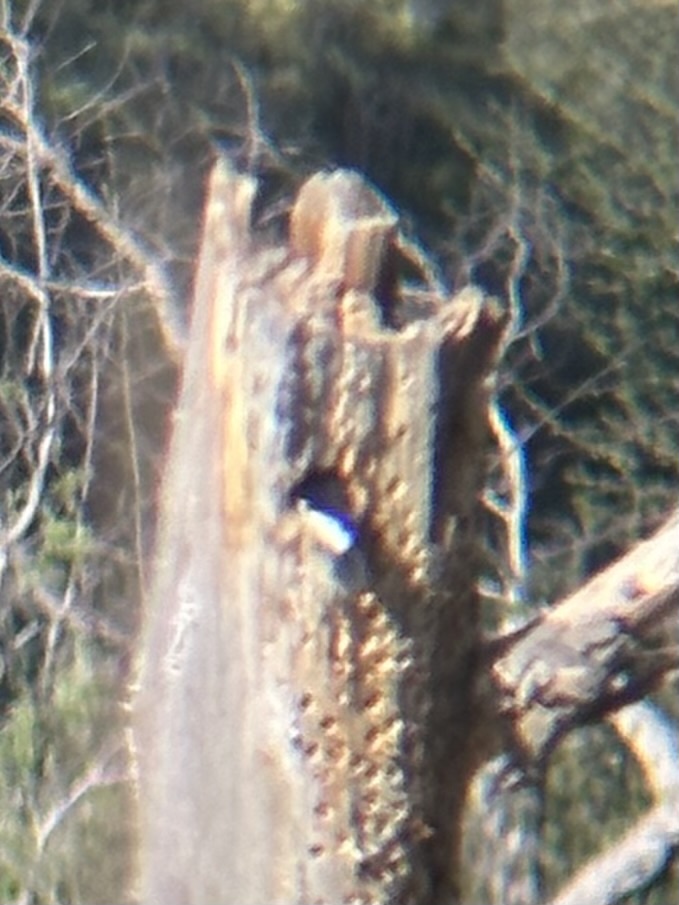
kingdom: Animalia
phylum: Chordata
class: Aves
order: Piciformes
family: Picidae
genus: Melanerpes
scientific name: Melanerpes formicivorus
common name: Acorn woodpecker
